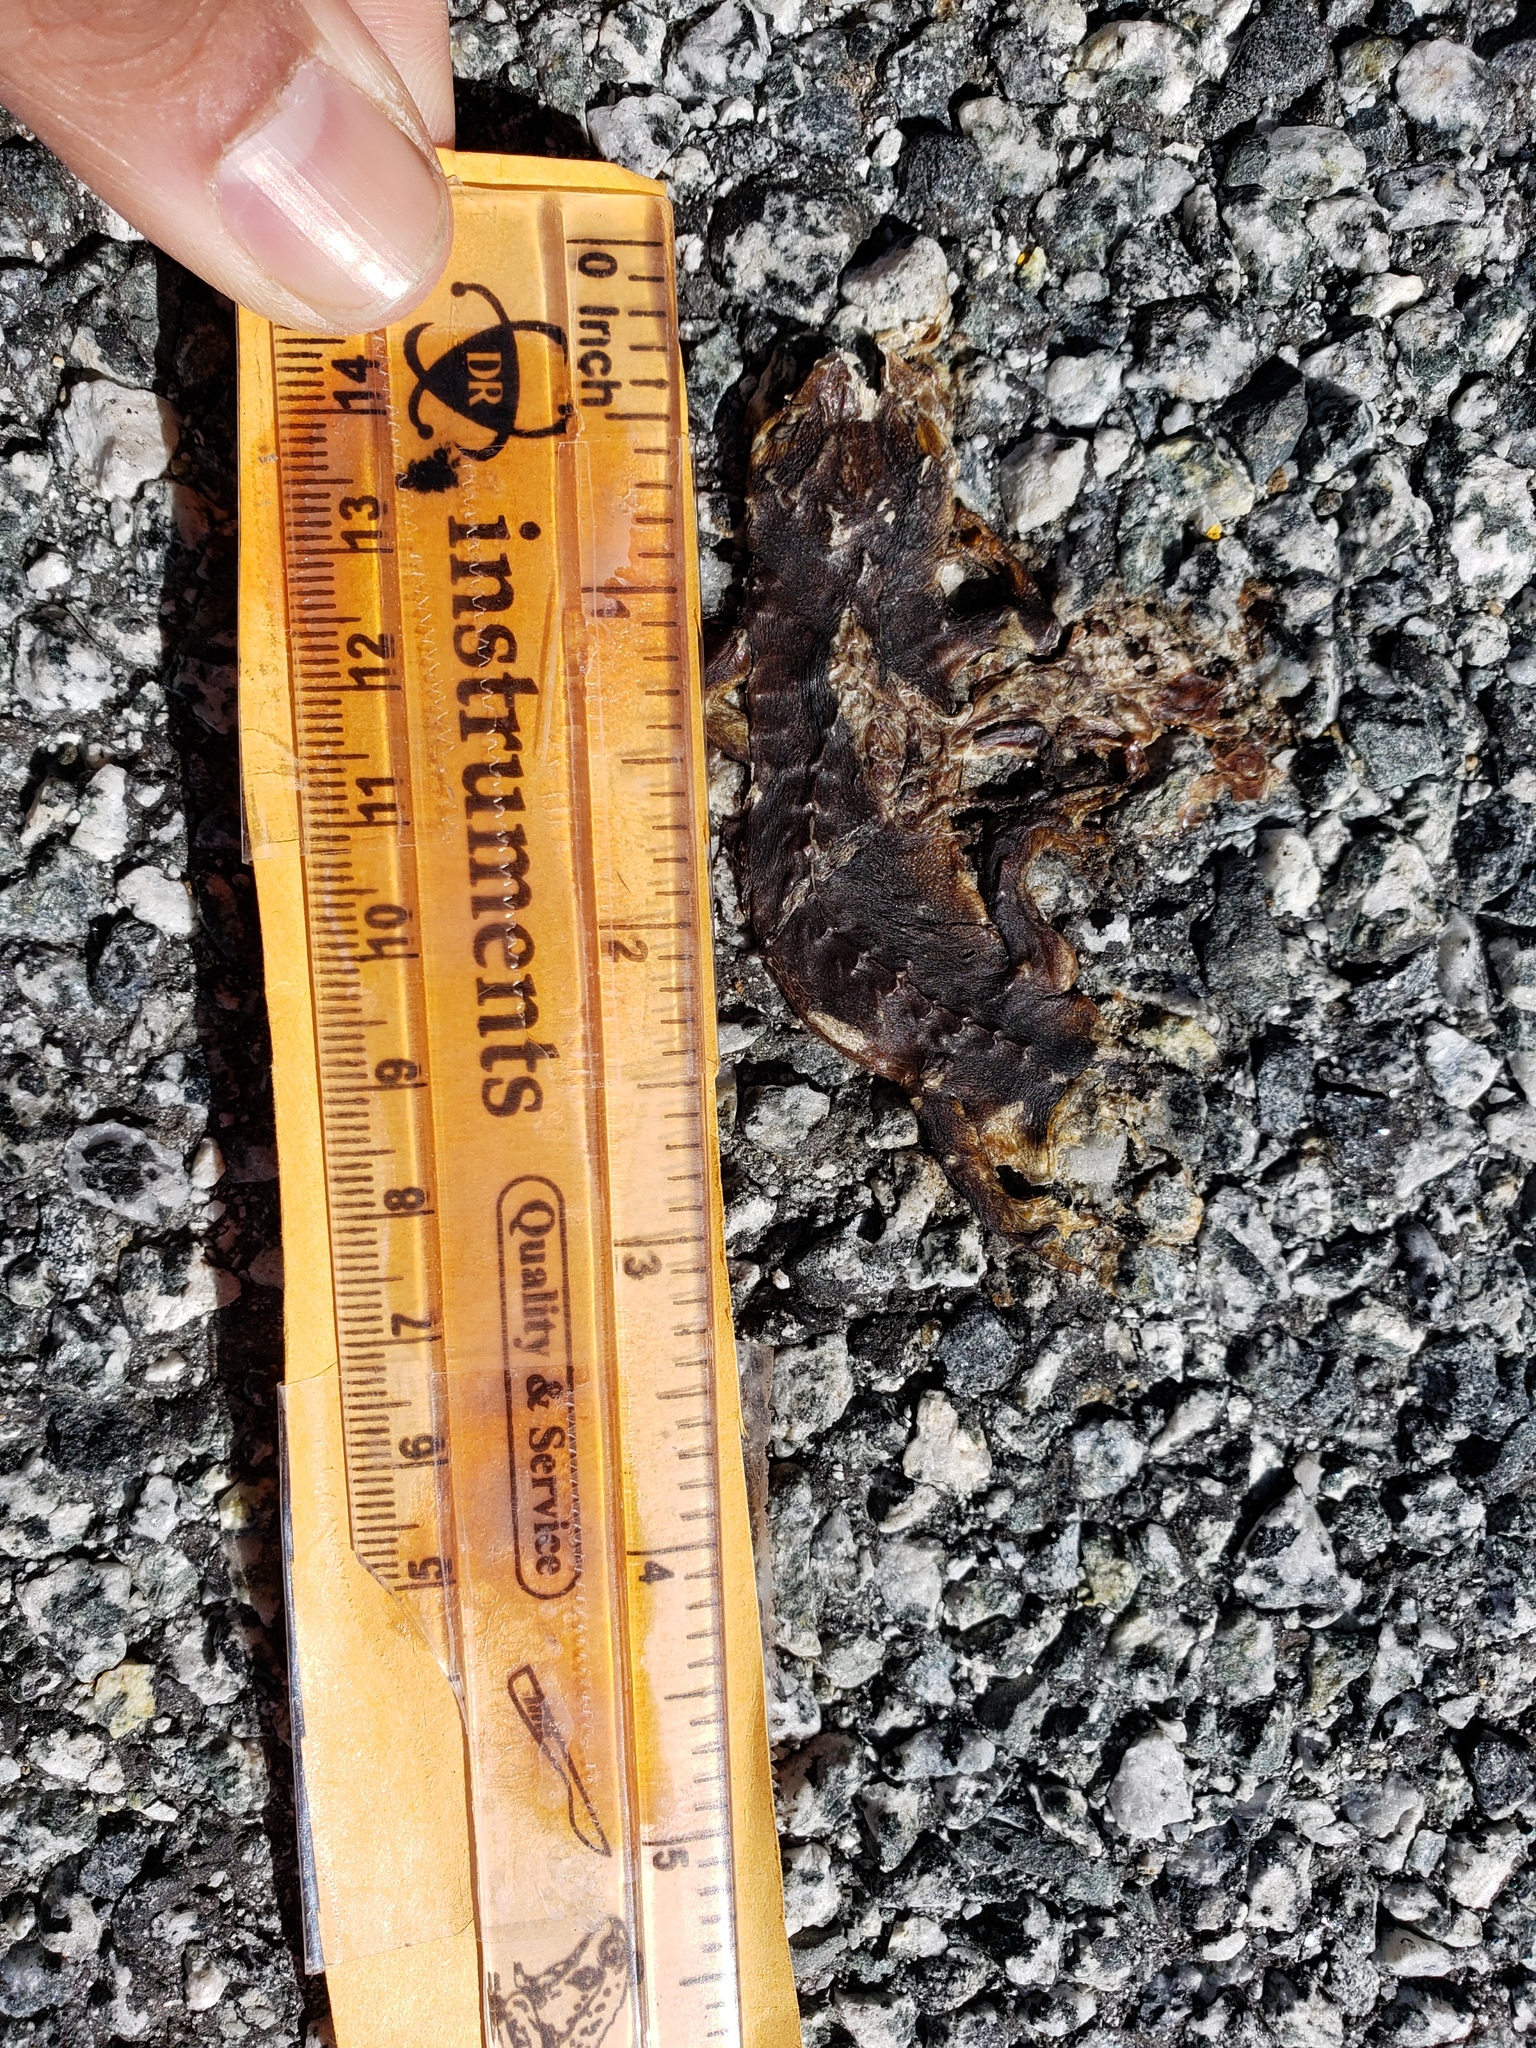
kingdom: Animalia
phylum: Chordata
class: Amphibia
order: Caudata
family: Salamandridae
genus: Taricha
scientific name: Taricha
